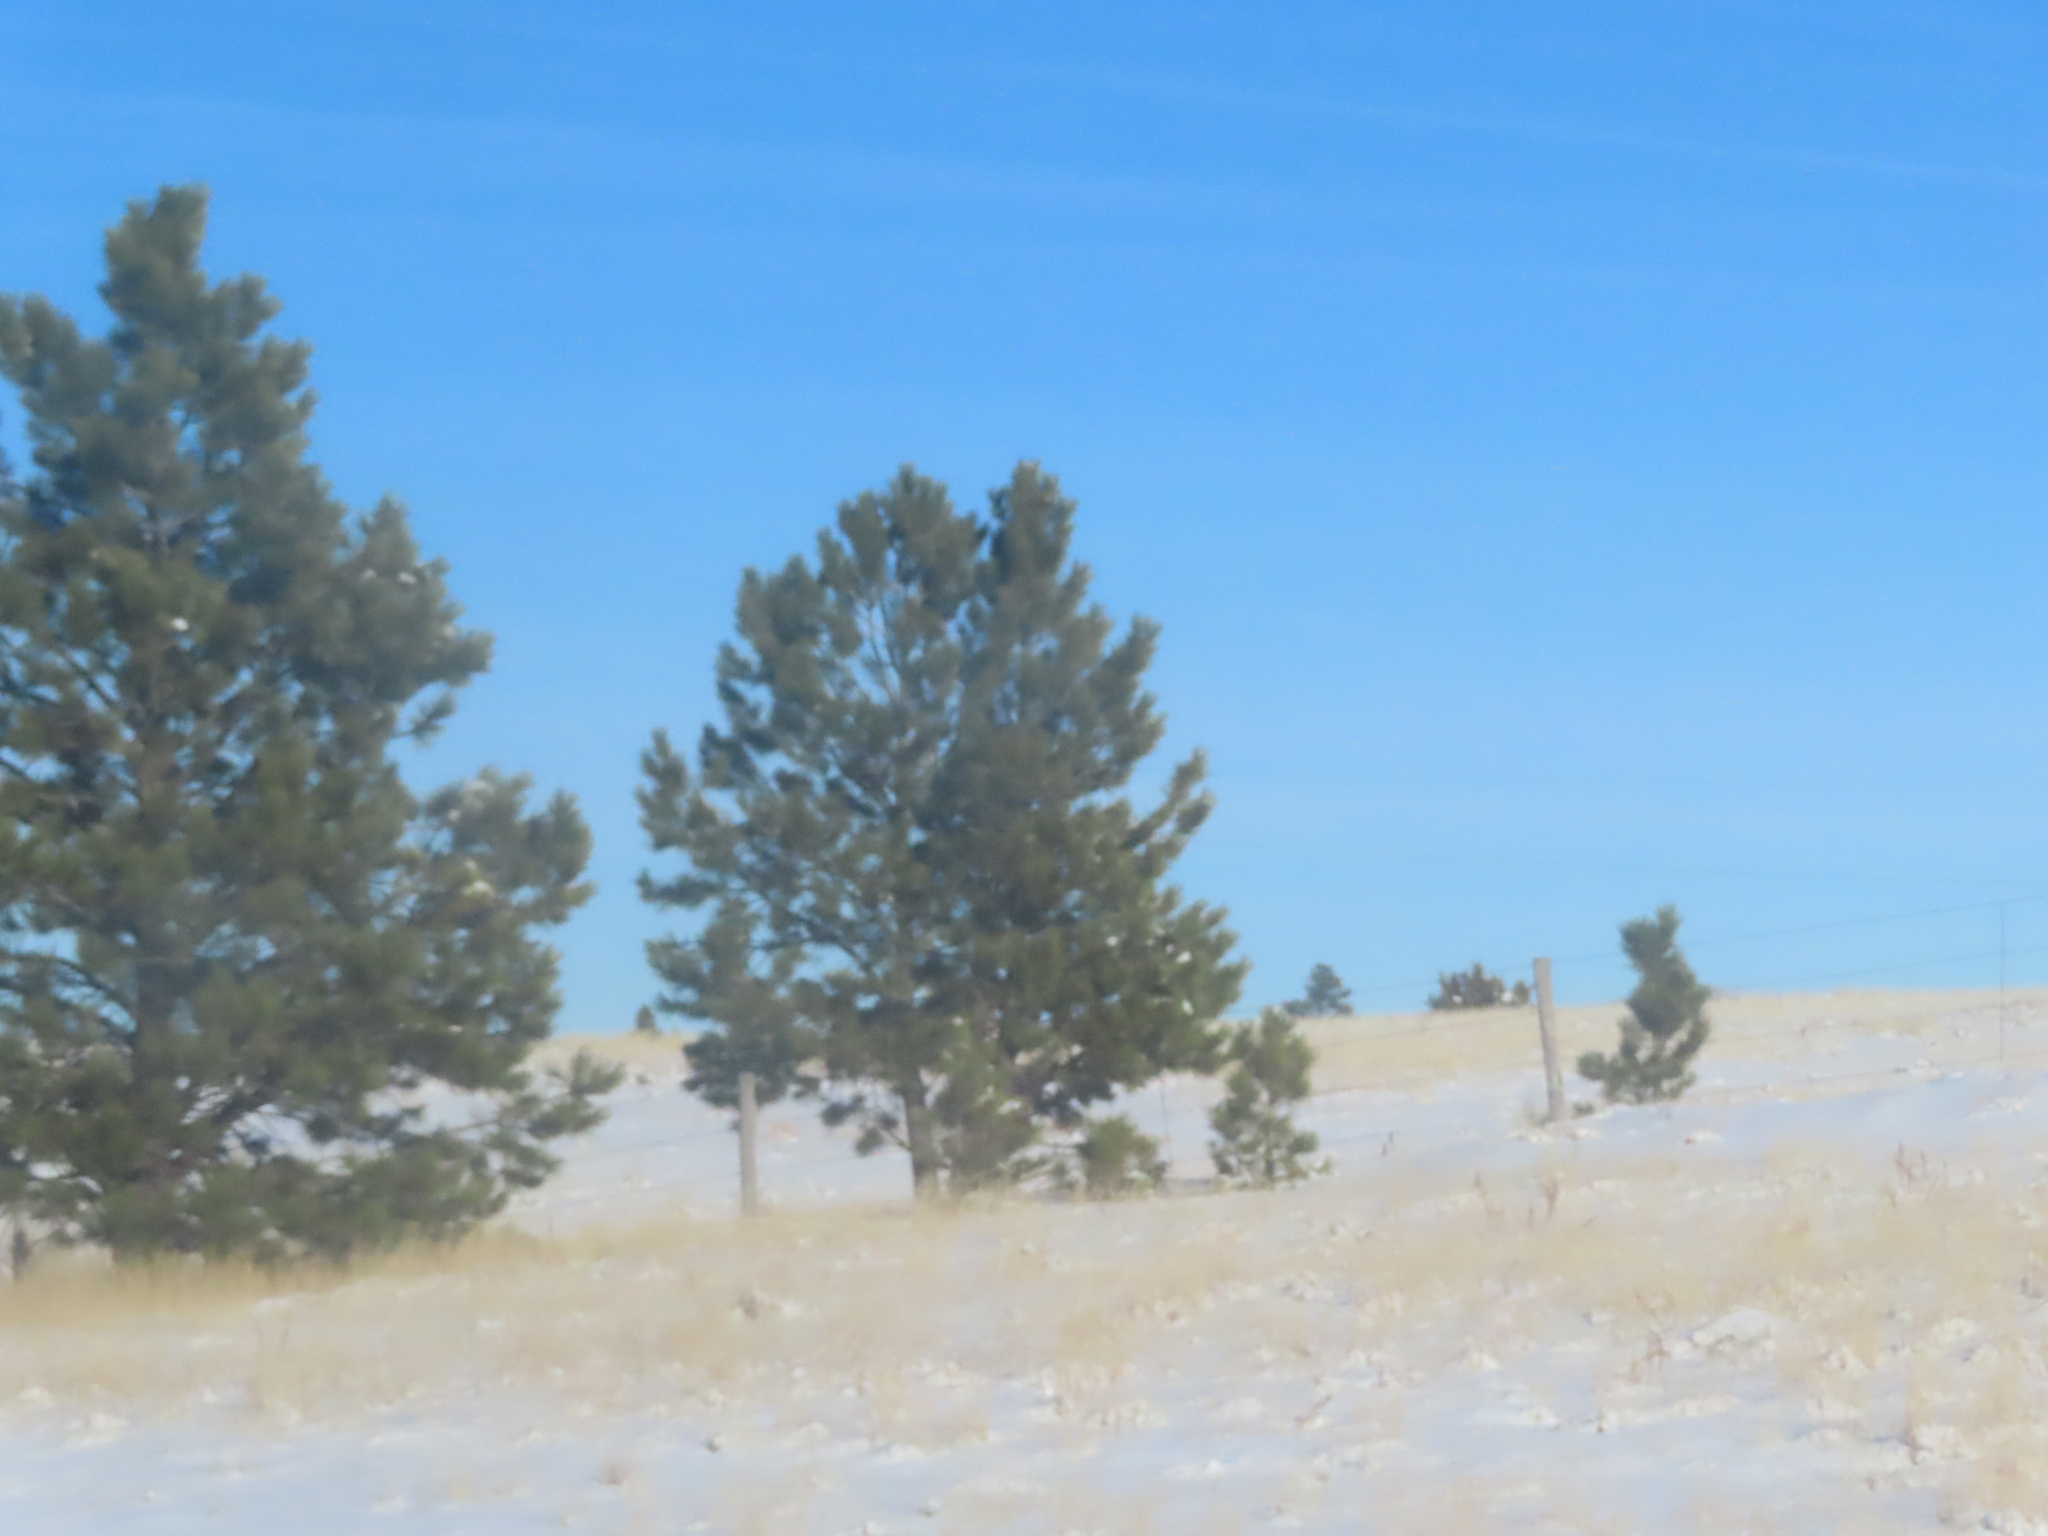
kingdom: Plantae
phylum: Tracheophyta
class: Pinopsida
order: Pinales
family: Pinaceae
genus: Pinus
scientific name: Pinus ponderosa
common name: Western yellow-pine
